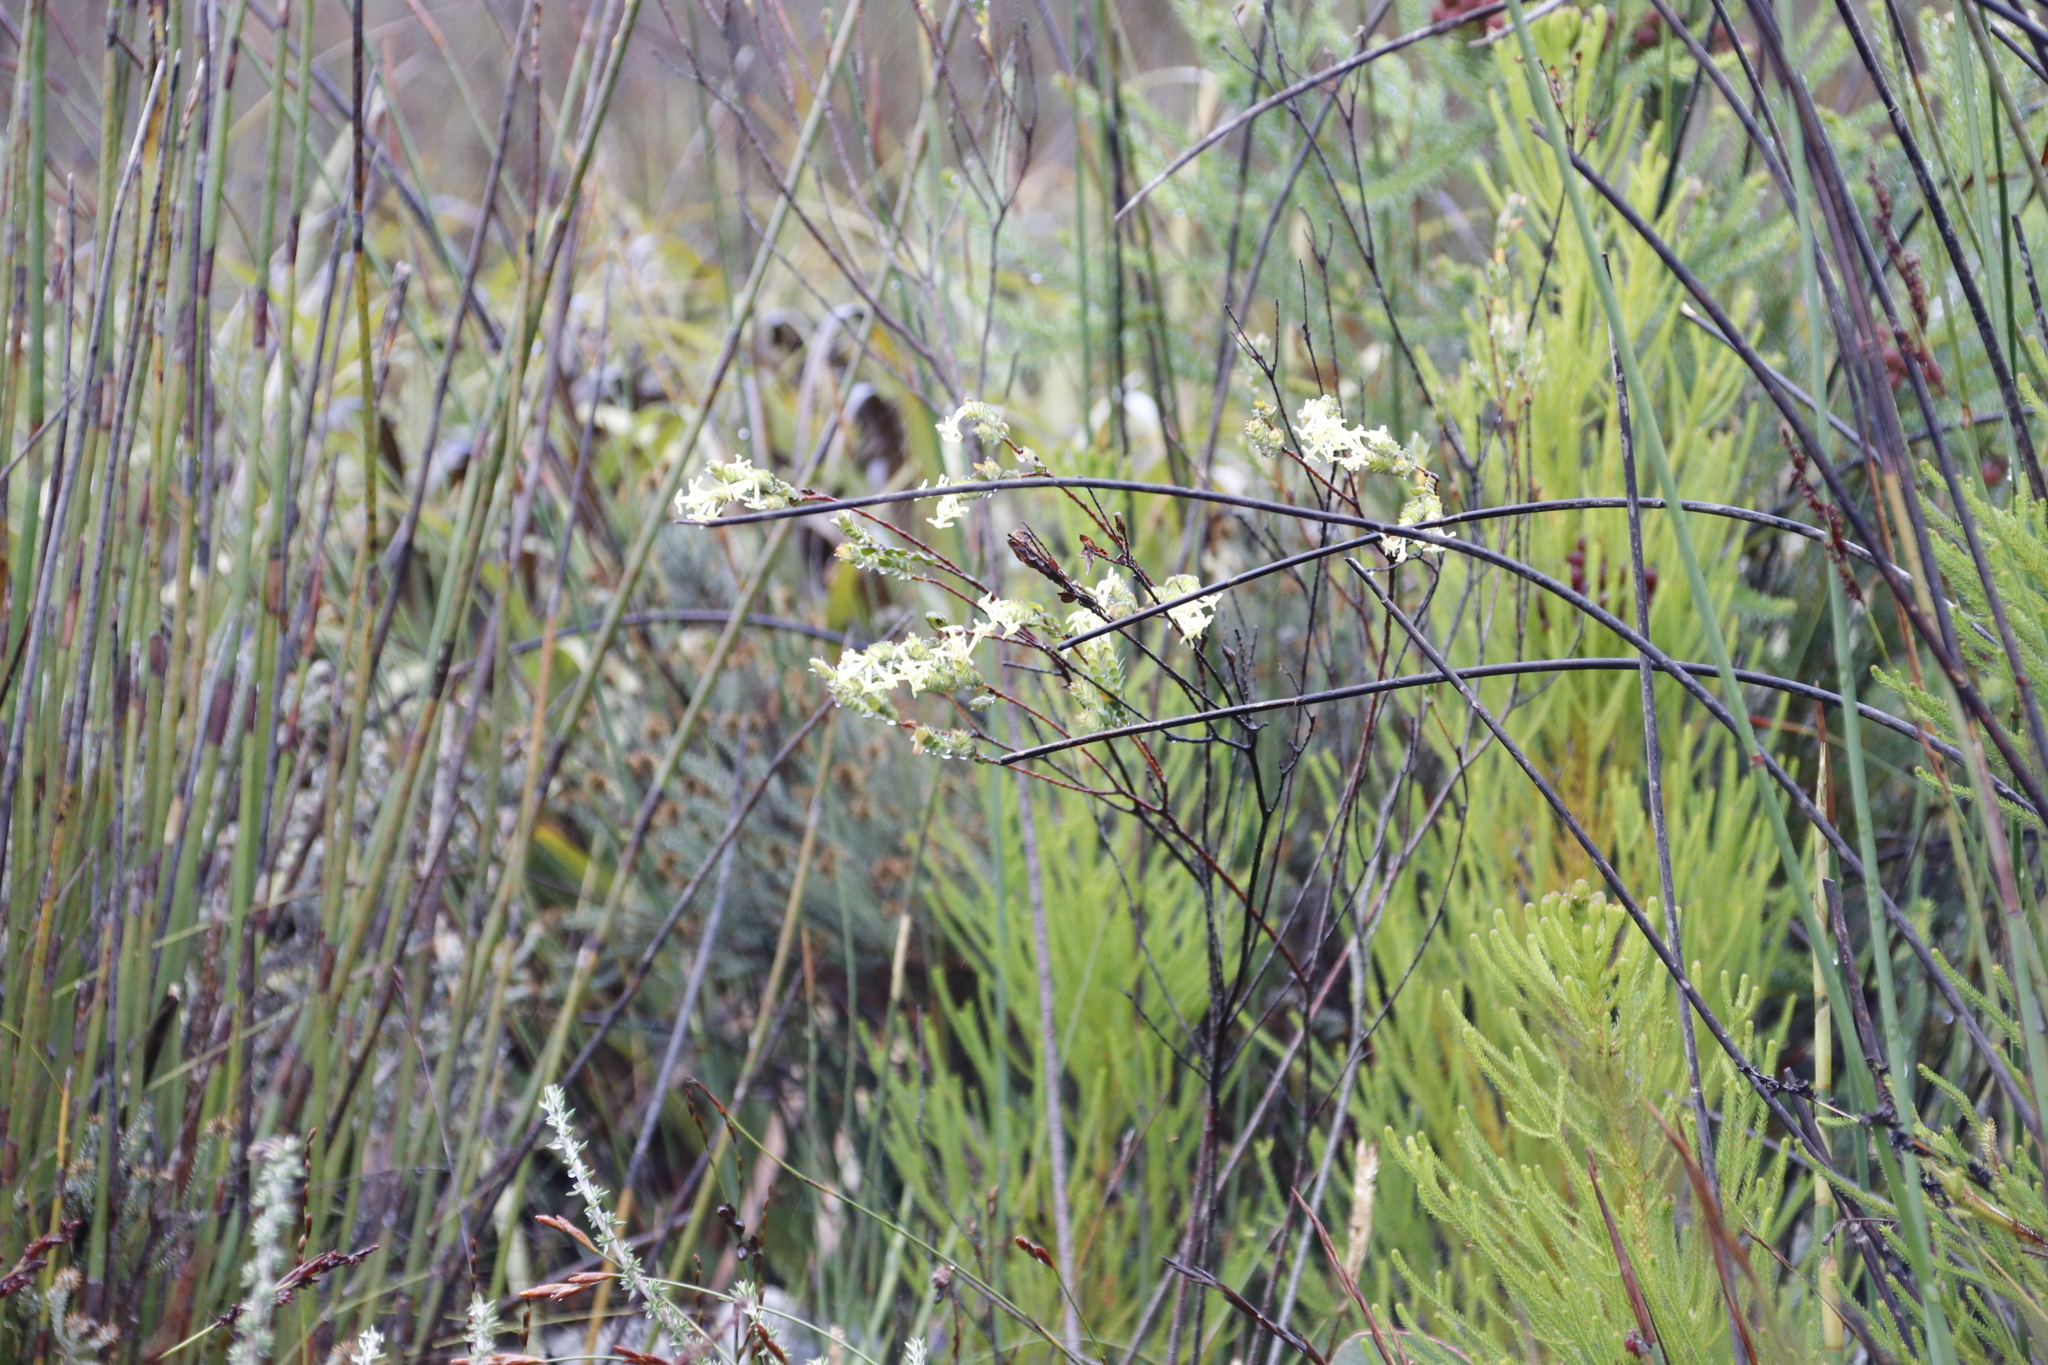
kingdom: Plantae
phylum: Tracheophyta
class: Magnoliopsida
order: Malvales
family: Thymelaeaceae
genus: Gnidia
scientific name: Gnidia oppositifolia
